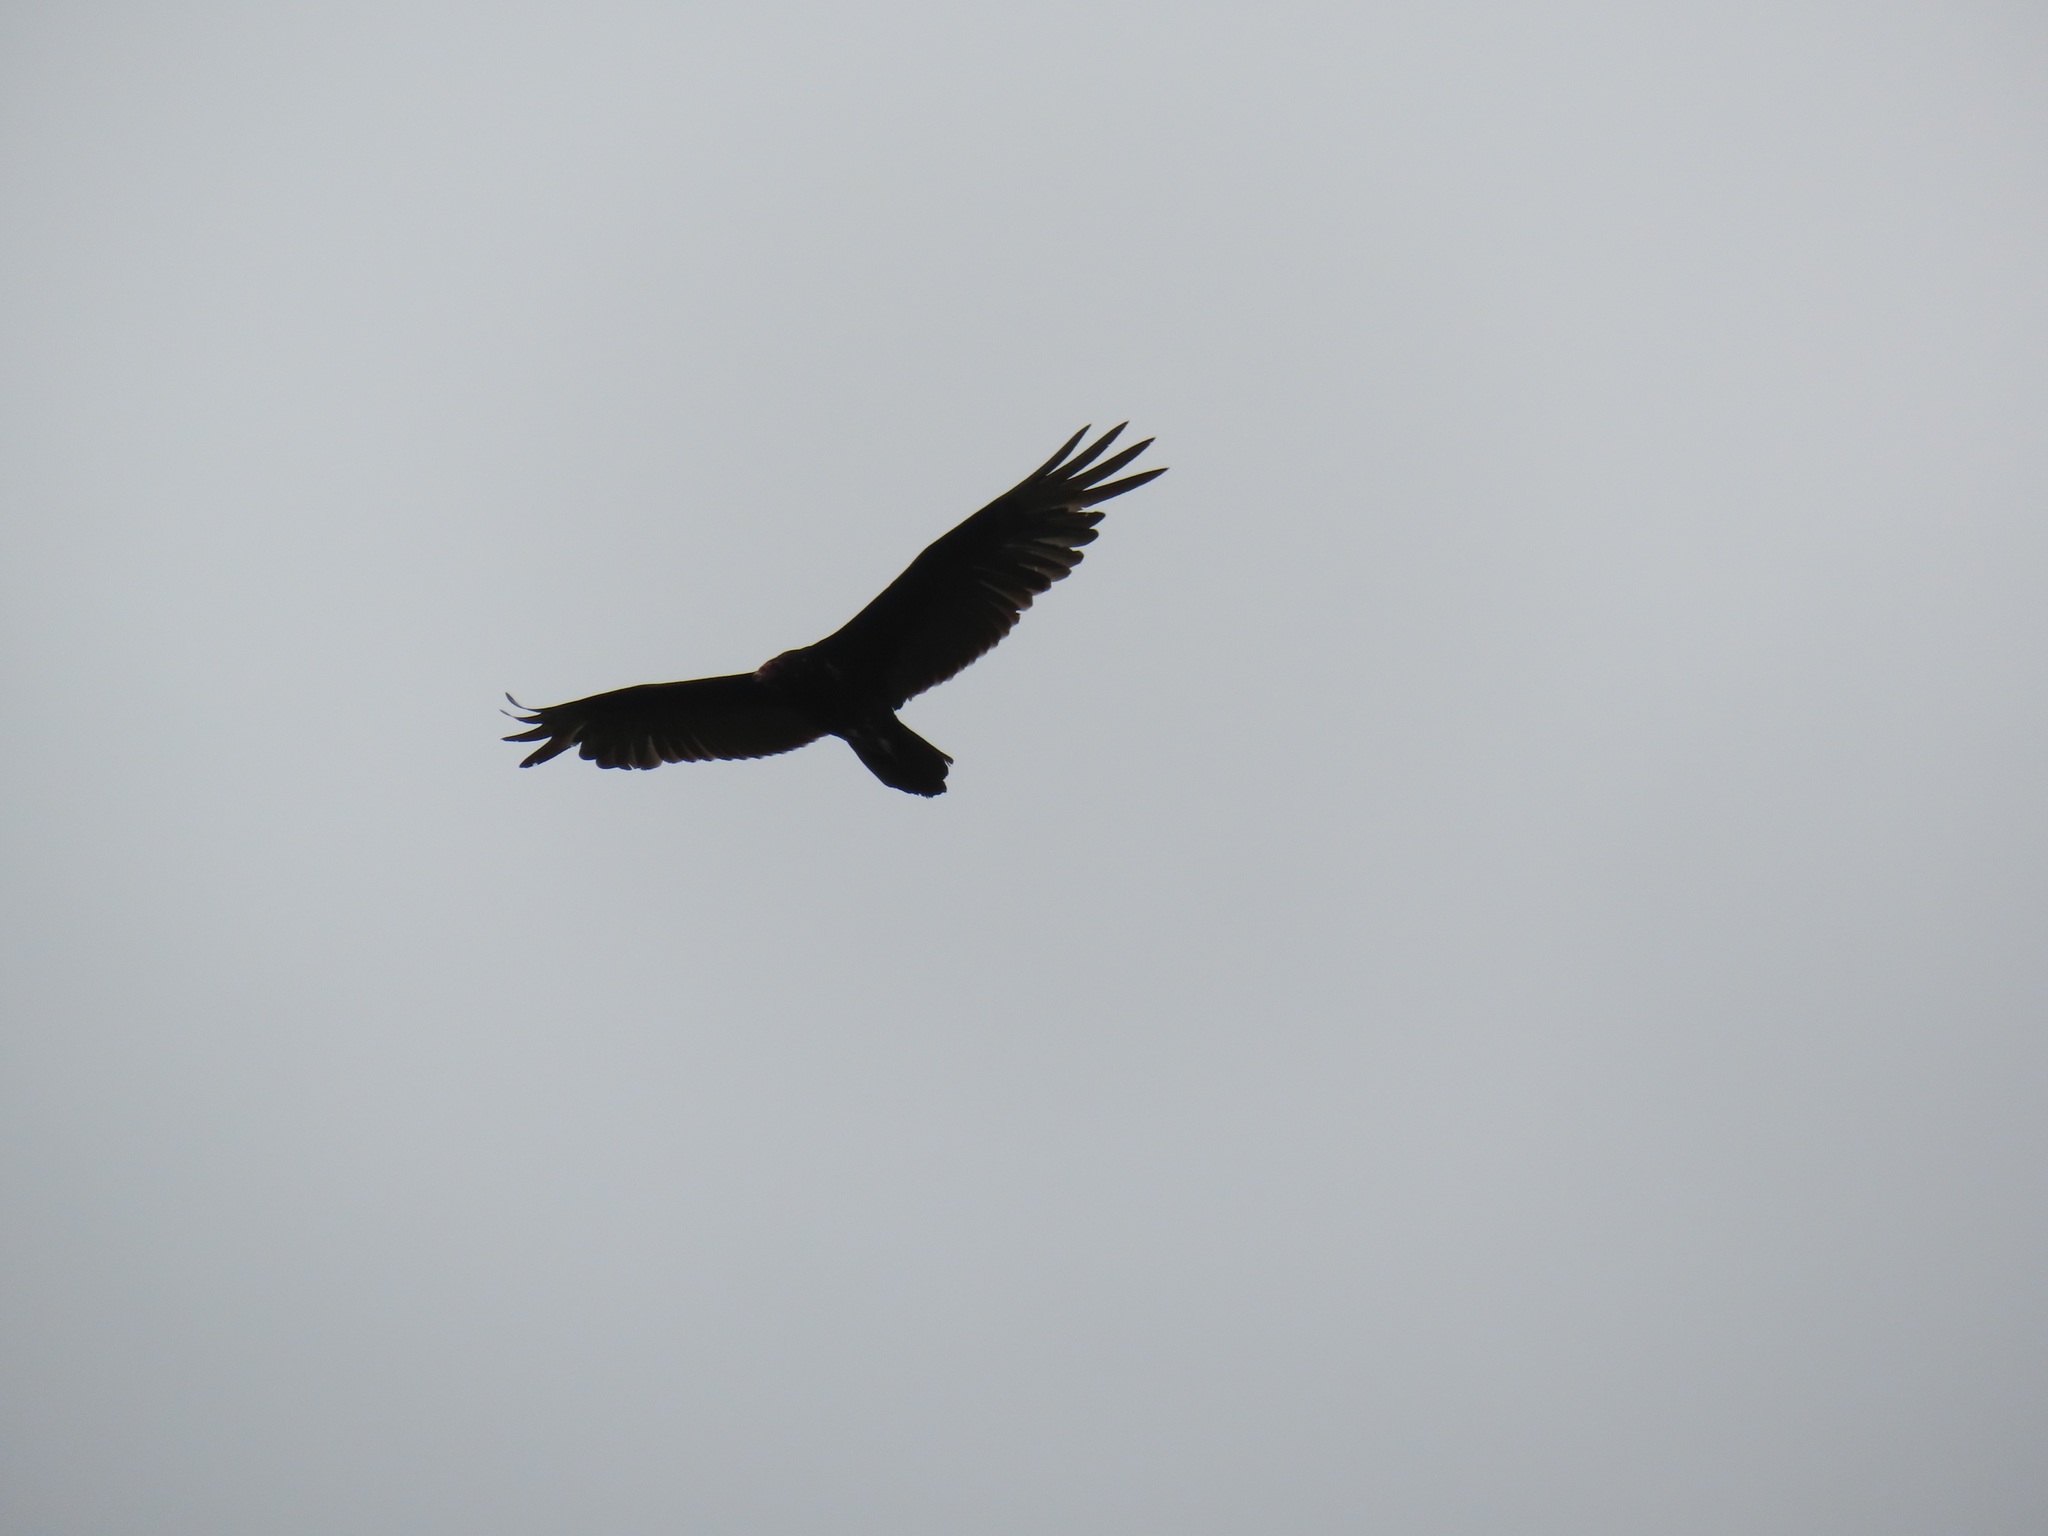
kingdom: Animalia
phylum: Chordata
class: Aves
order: Accipitriformes
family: Cathartidae
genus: Cathartes
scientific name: Cathartes aura
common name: Turkey vulture
